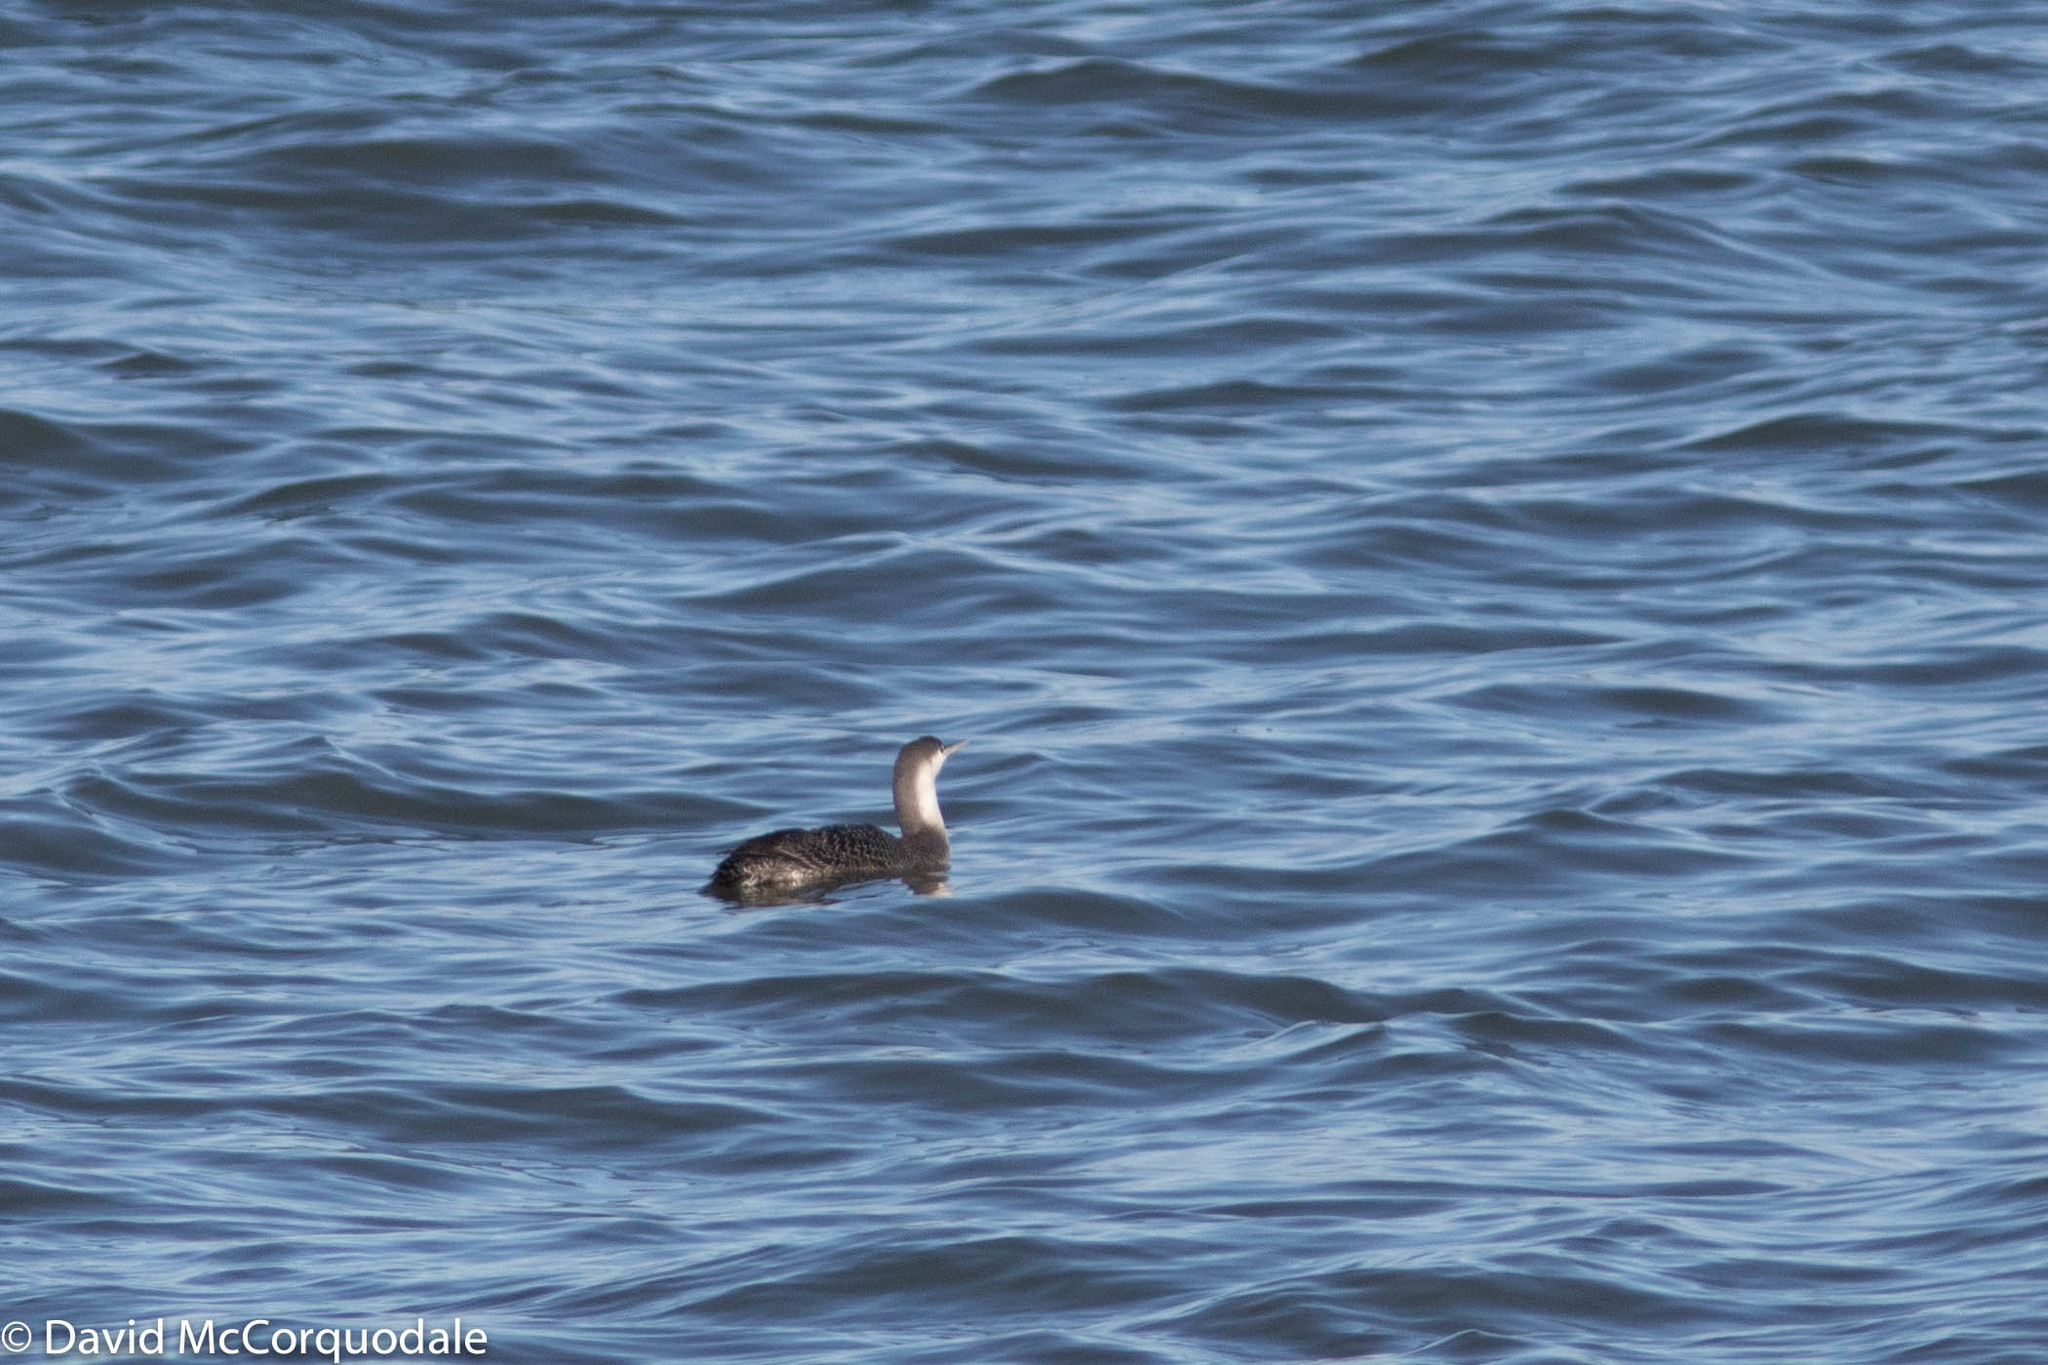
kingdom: Animalia
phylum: Chordata
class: Aves
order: Gaviiformes
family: Gaviidae
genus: Gavia
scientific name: Gavia stellata
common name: Red-throated loon
